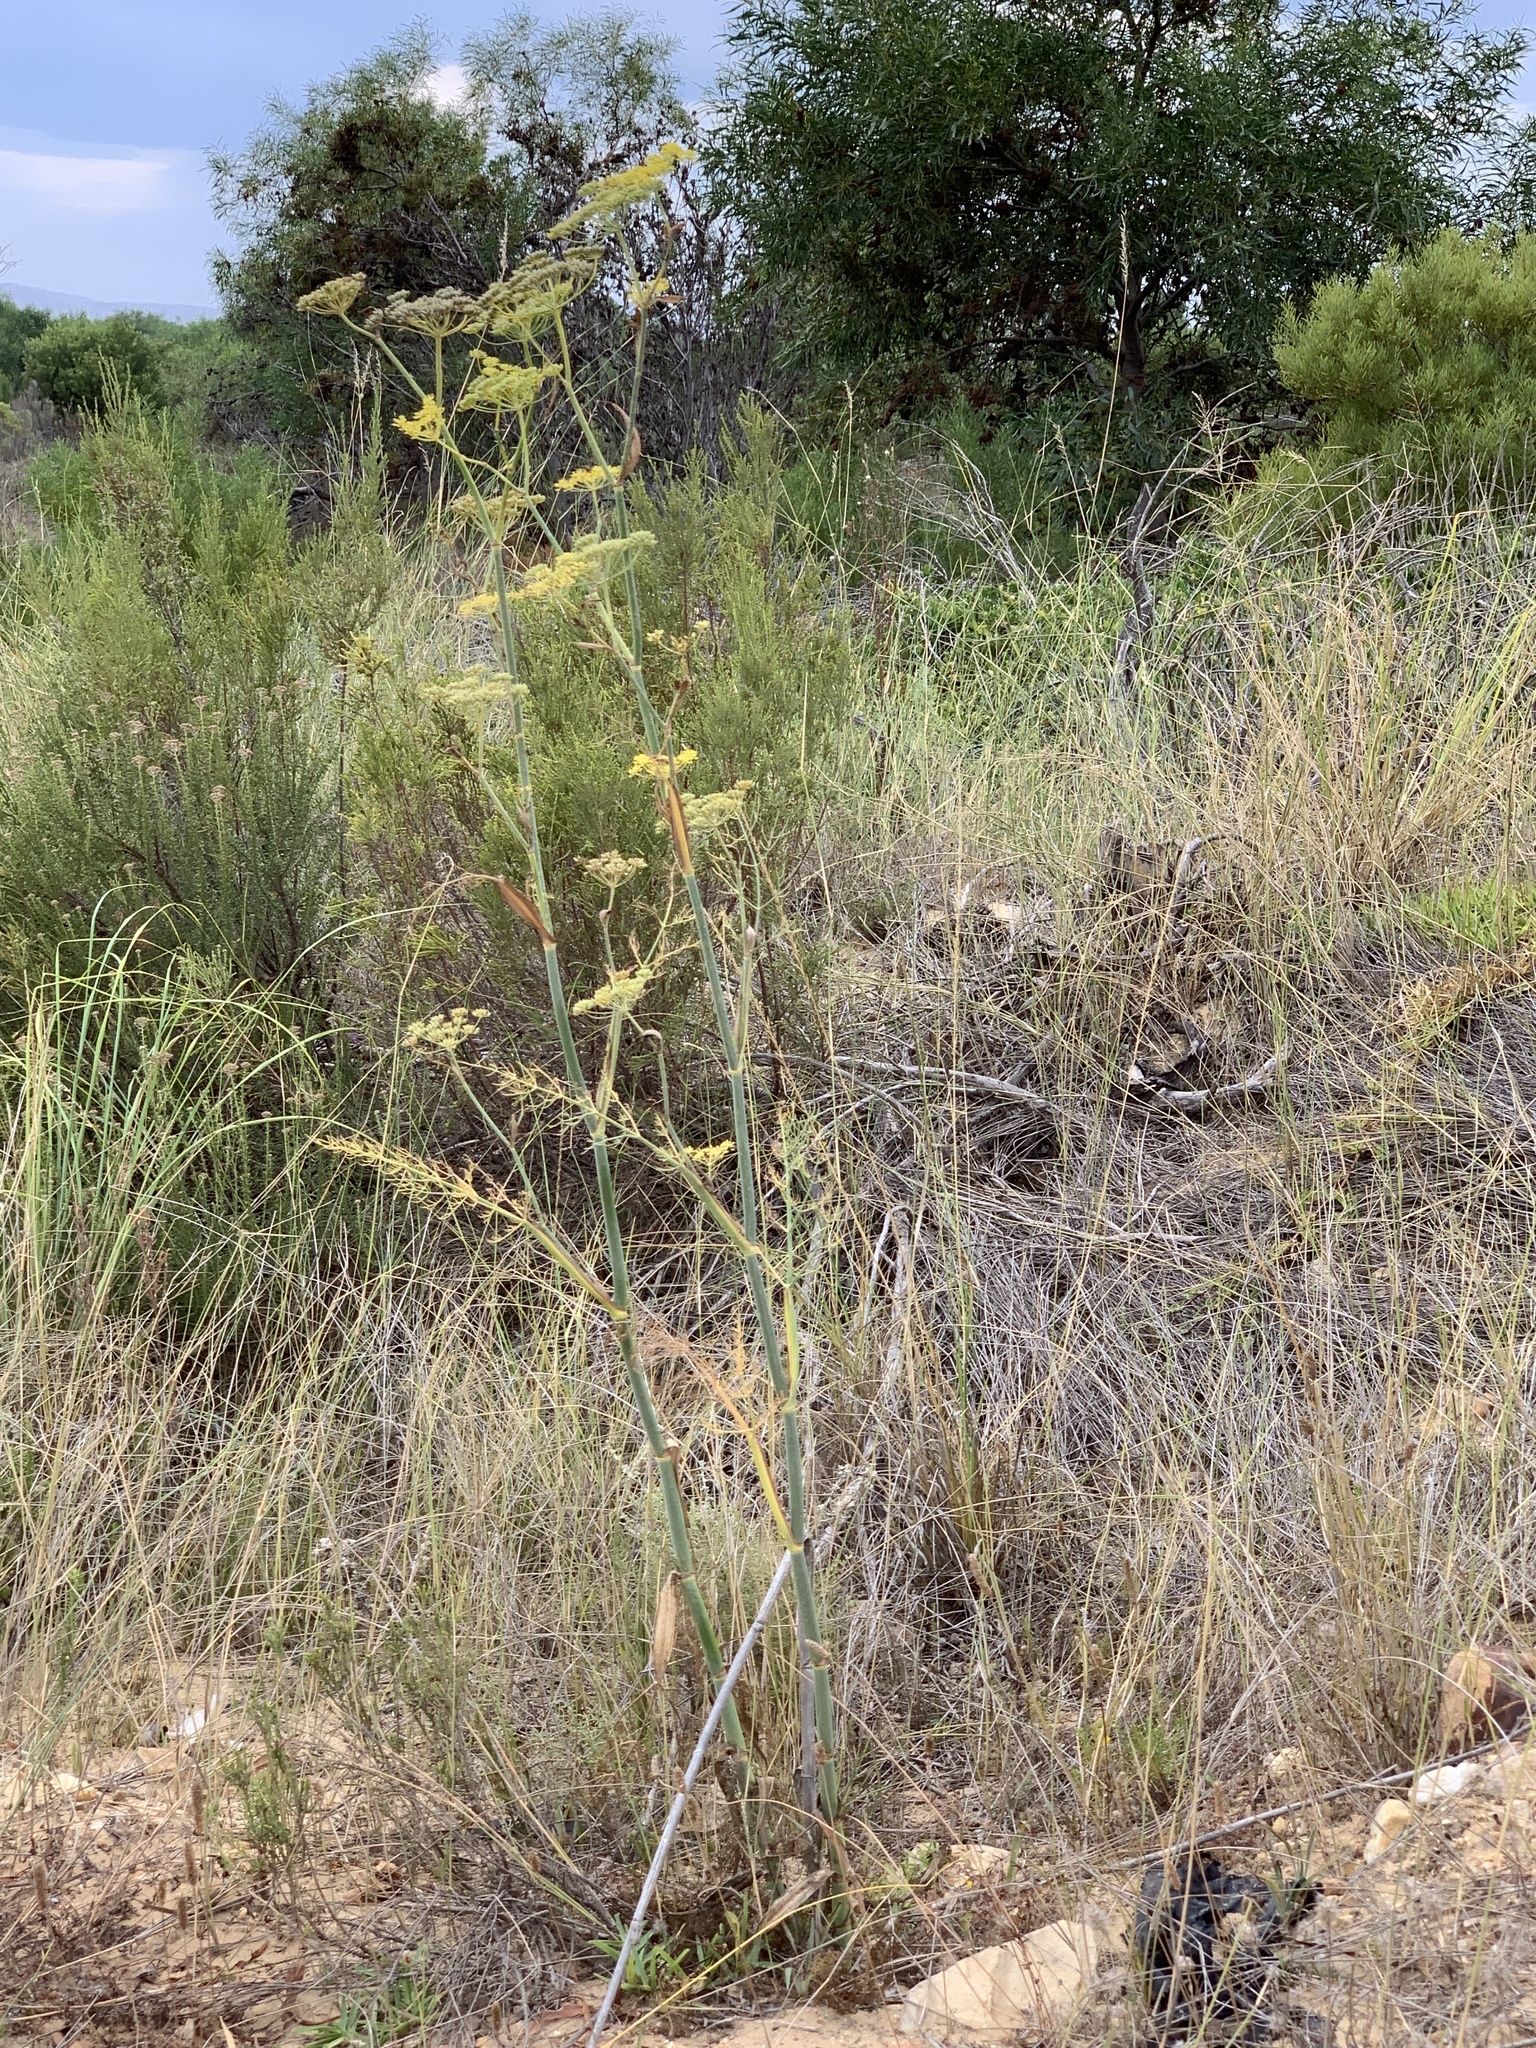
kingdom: Plantae
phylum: Tracheophyta
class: Magnoliopsida
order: Apiales
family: Apiaceae
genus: Foeniculum
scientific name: Foeniculum vulgare
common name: Fennel
